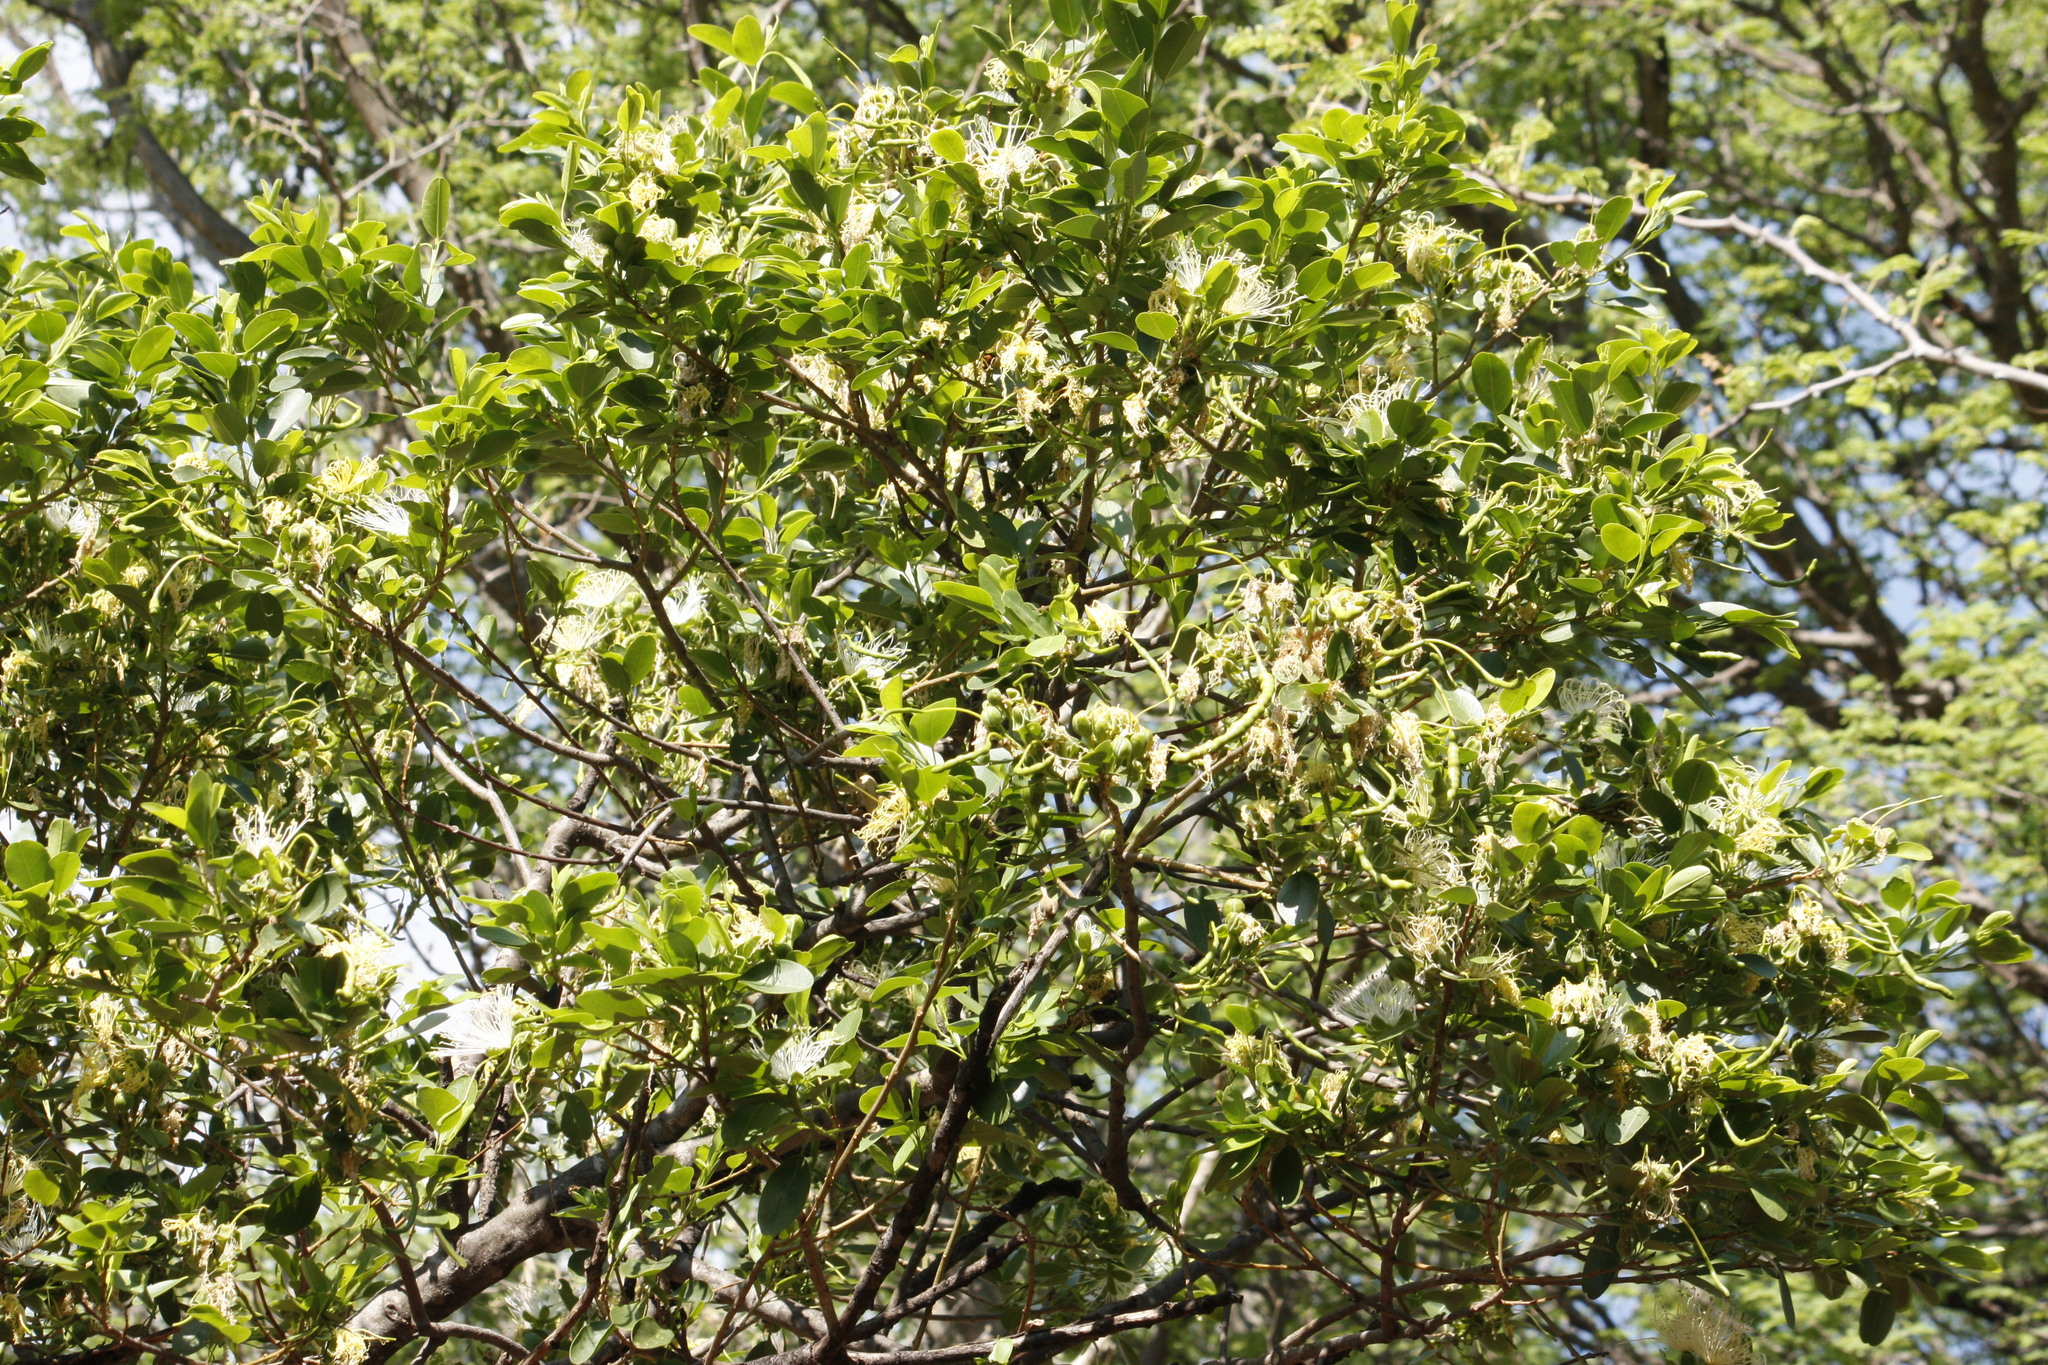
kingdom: Plantae
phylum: Tracheophyta
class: Magnoliopsida
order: Brassicales
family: Capparaceae
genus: Maerua
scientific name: Maerua angolensis
